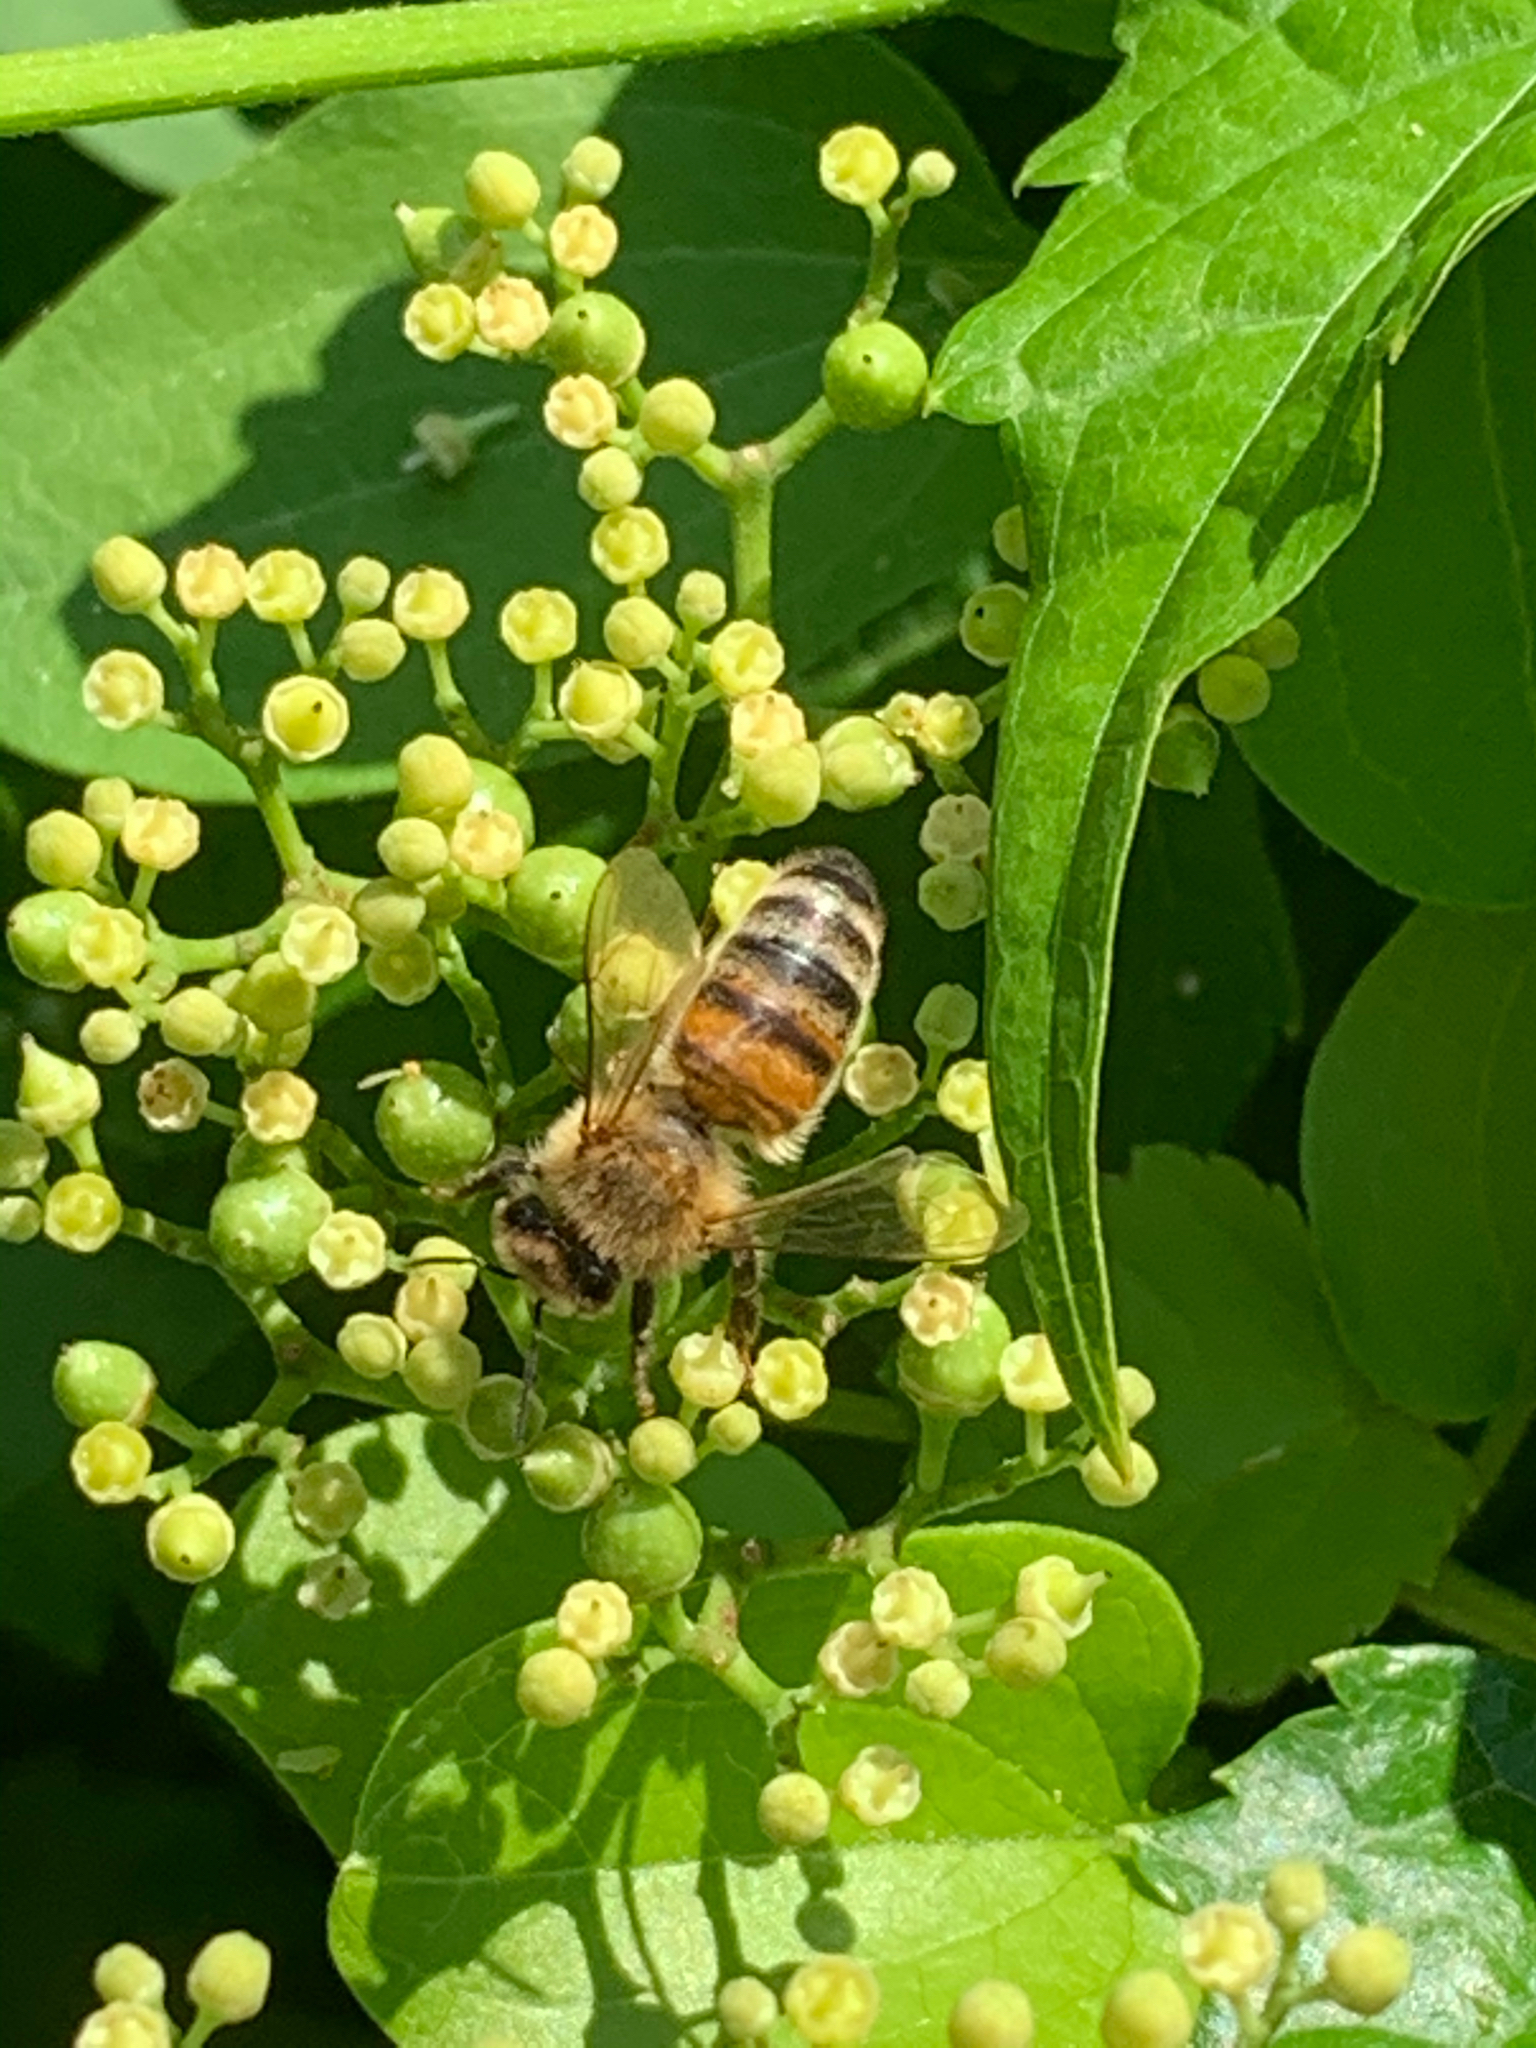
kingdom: Animalia
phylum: Arthropoda
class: Insecta
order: Hymenoptera
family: Apidae
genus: Apis
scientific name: Apis mellifera
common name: Honey bee
